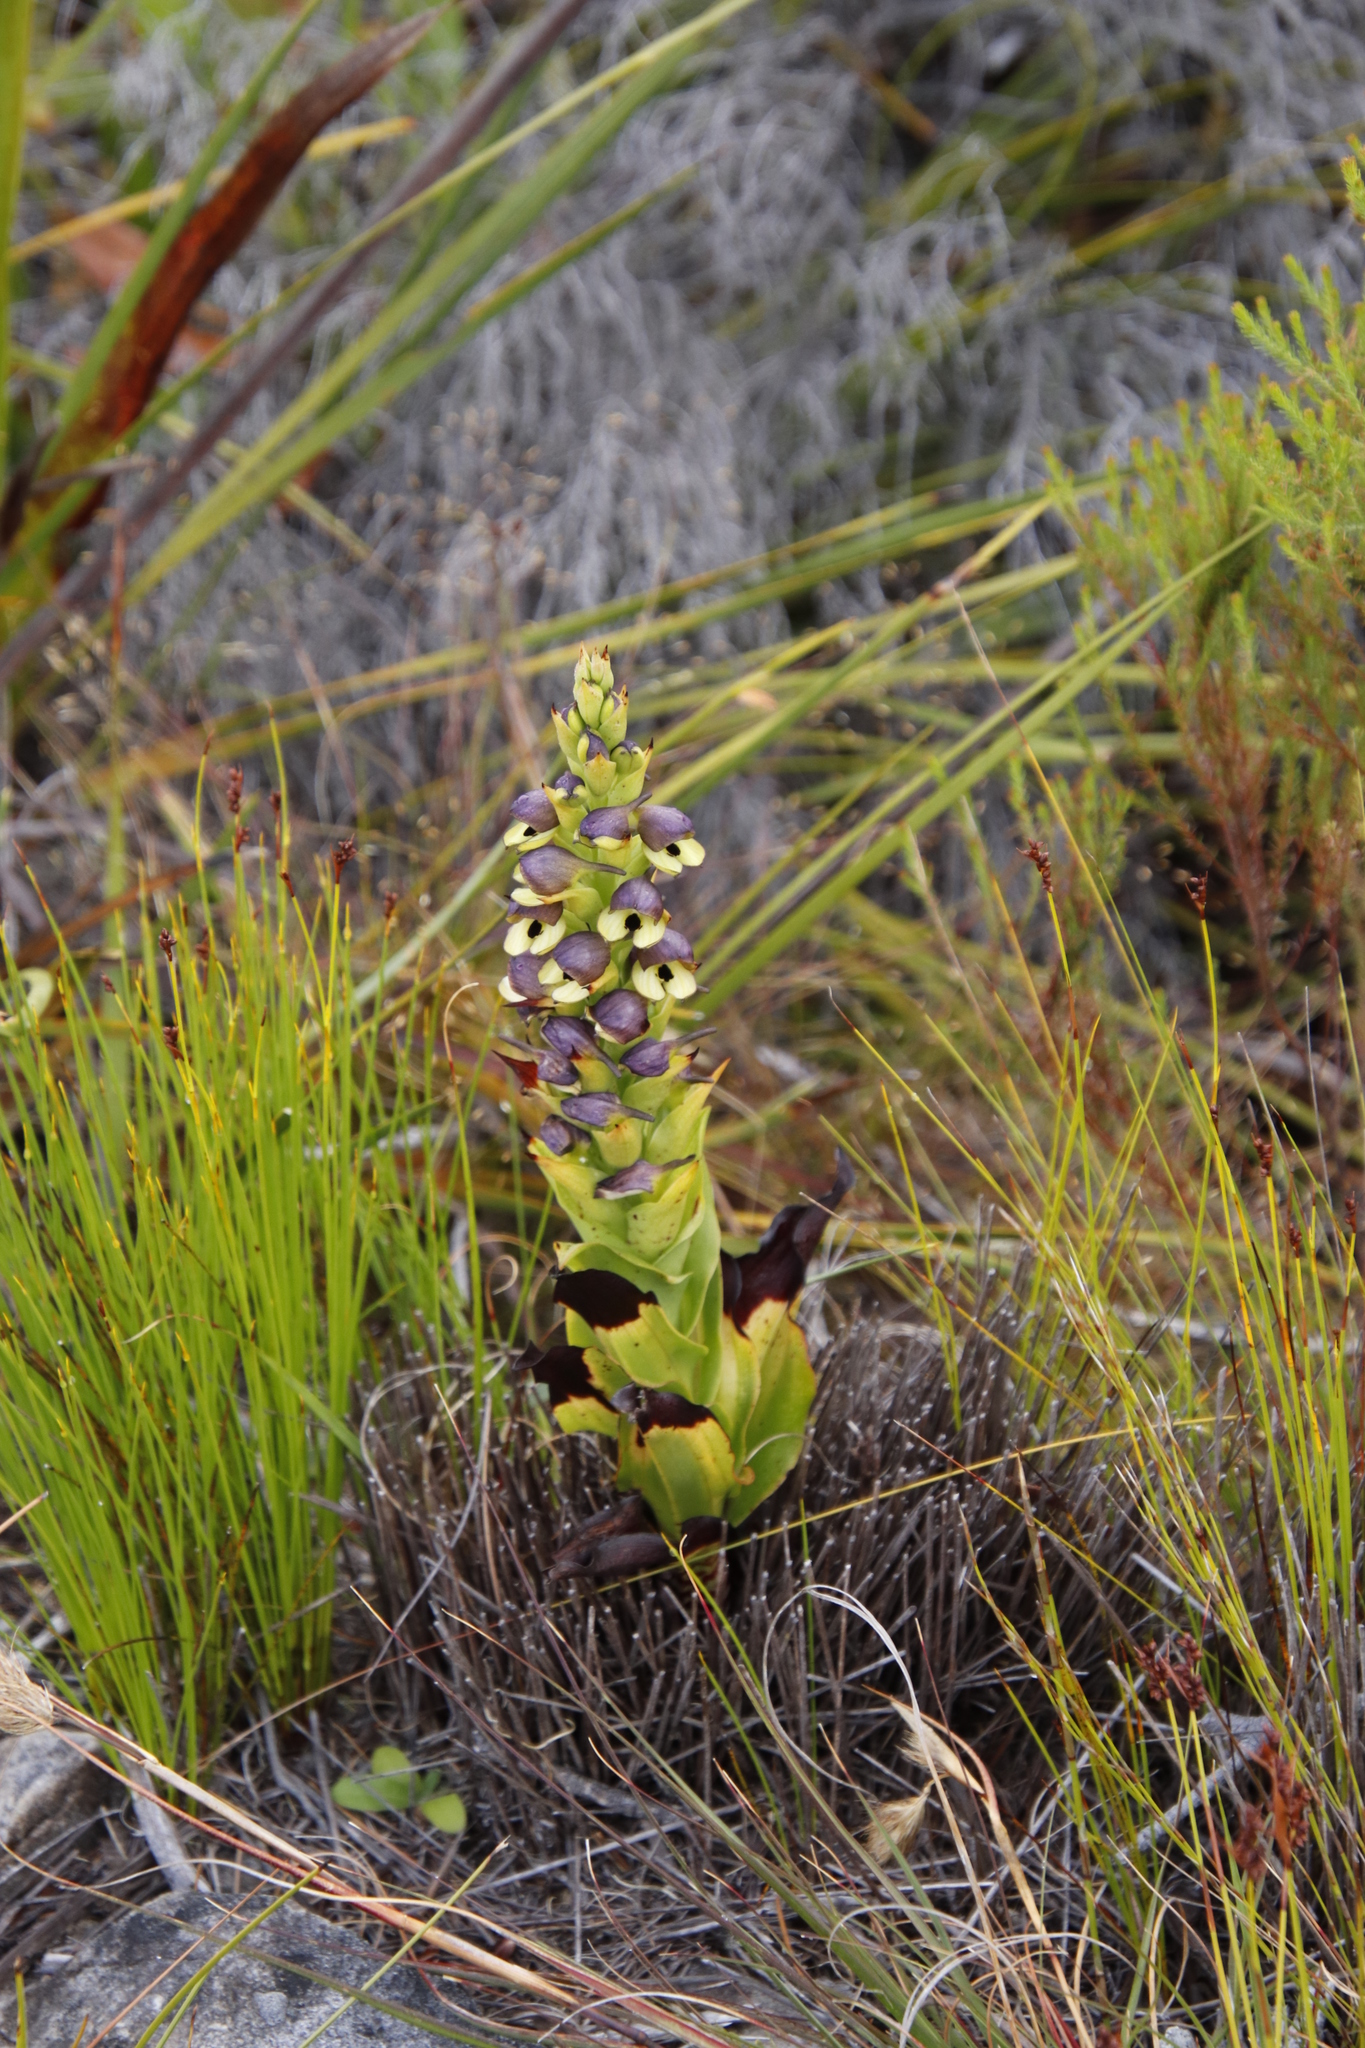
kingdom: Plantae
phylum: Tracheophyta
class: Liliopsida
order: Asparagales
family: Orchidaceae
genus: Disa
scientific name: Disa cornuta
